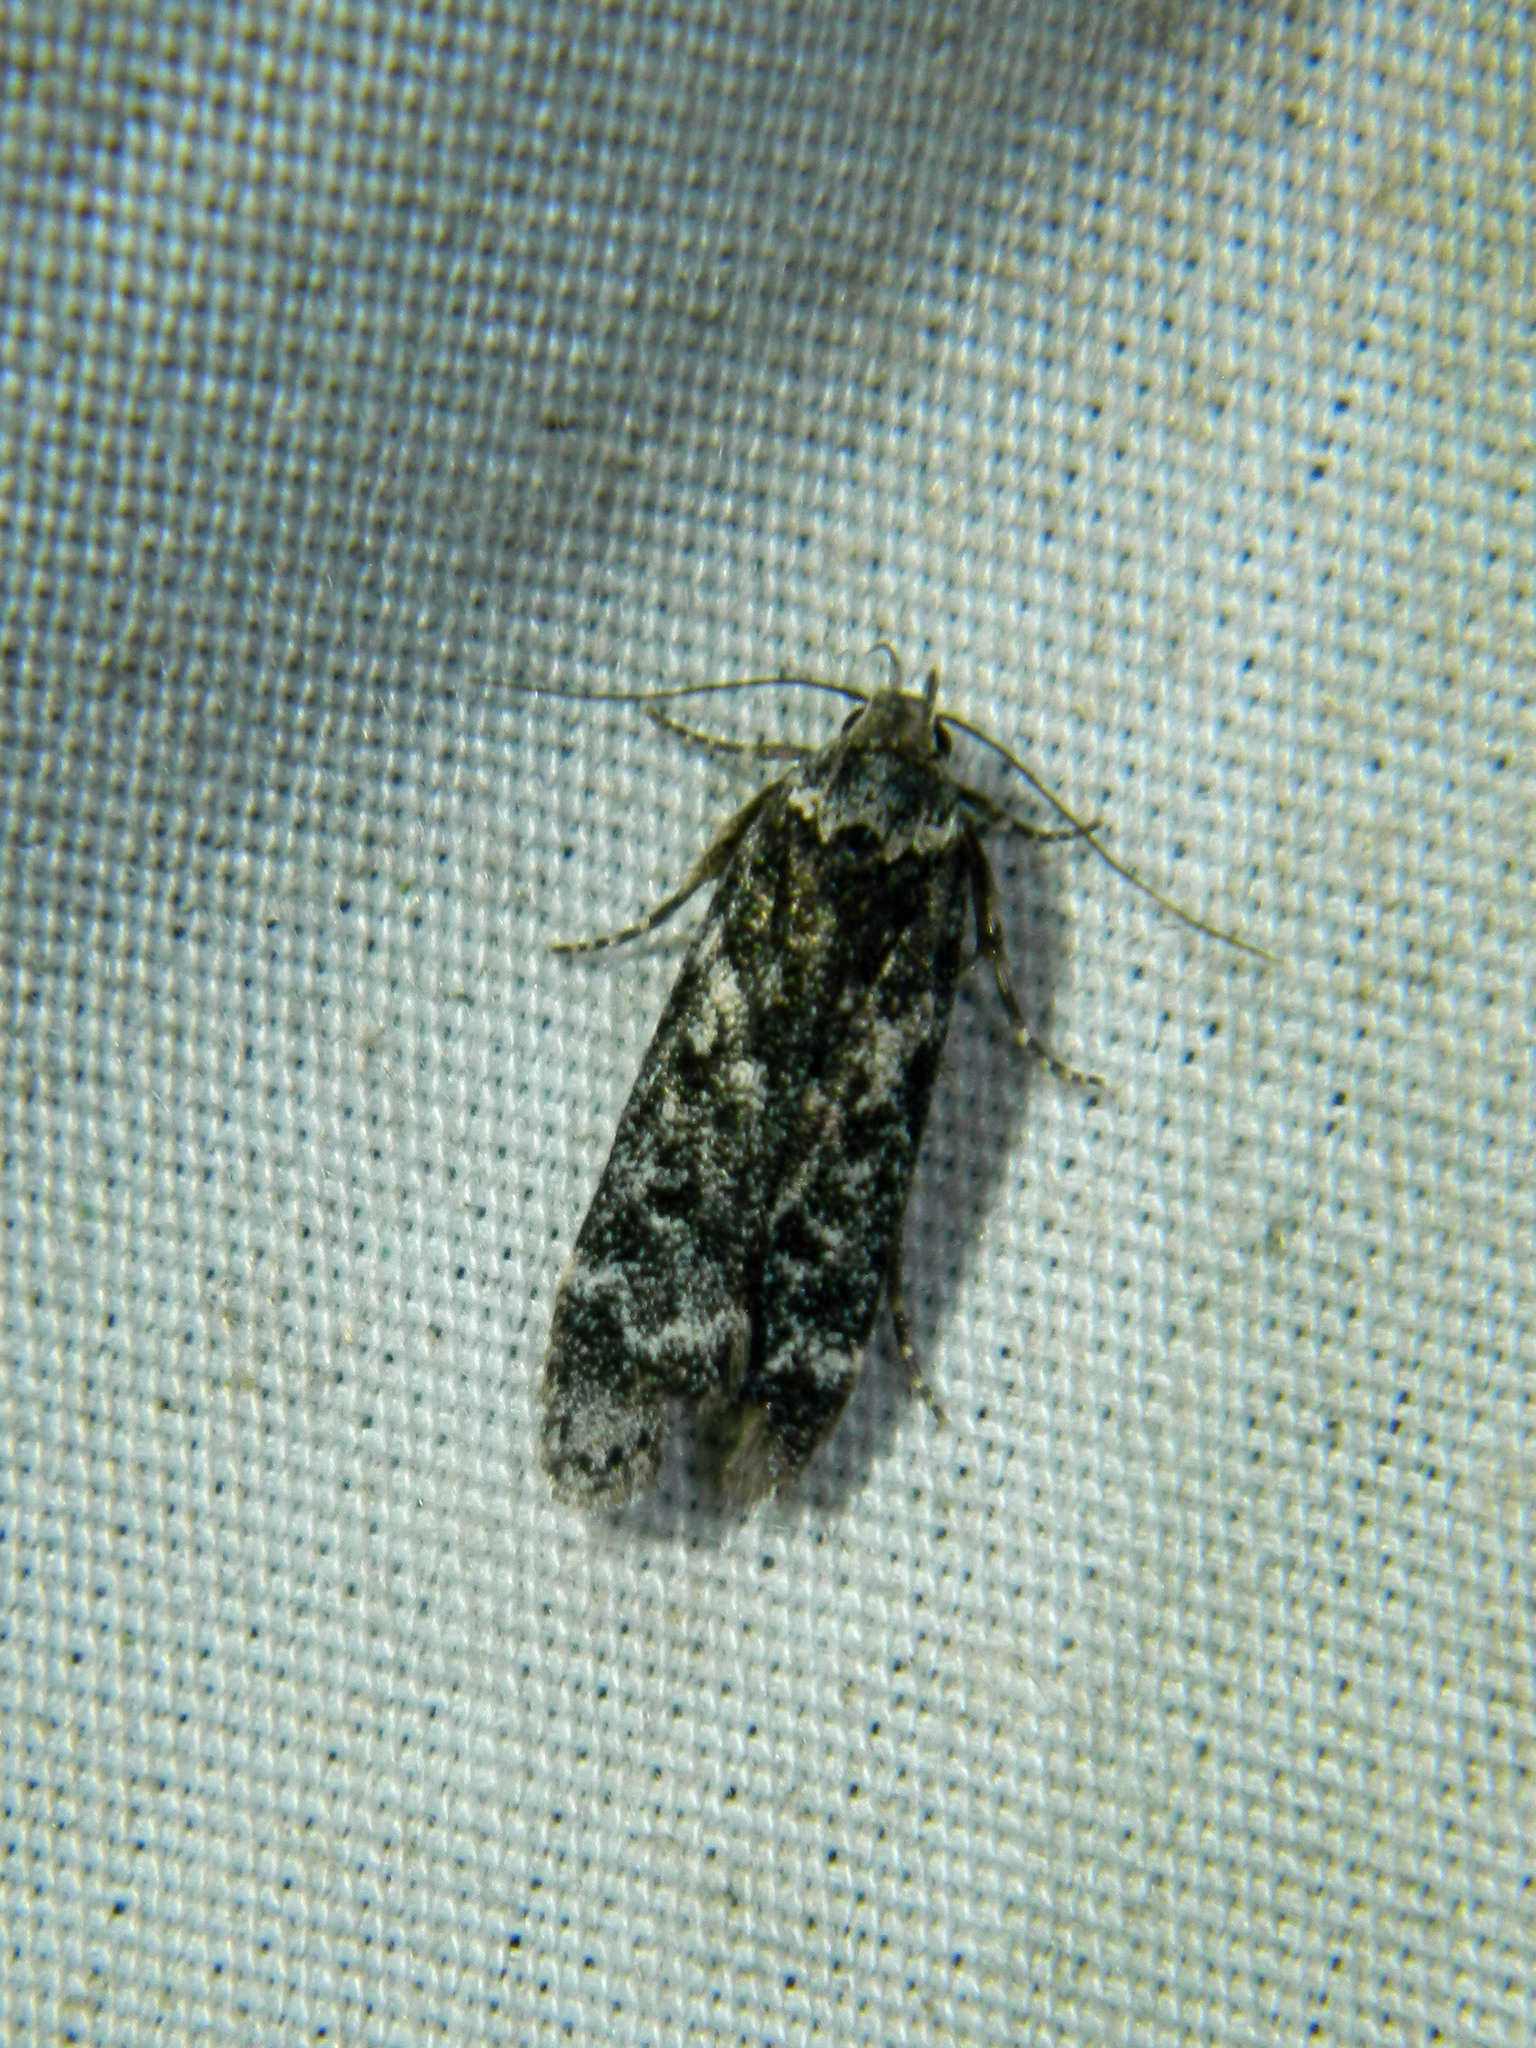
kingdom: Animalia
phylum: Arthropoda
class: Insecta
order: Lepidoptera
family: Gelechiidae
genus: Anacampsis
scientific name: Anacampsis niveopulvella
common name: Pale-headed aspen leafroller moth
